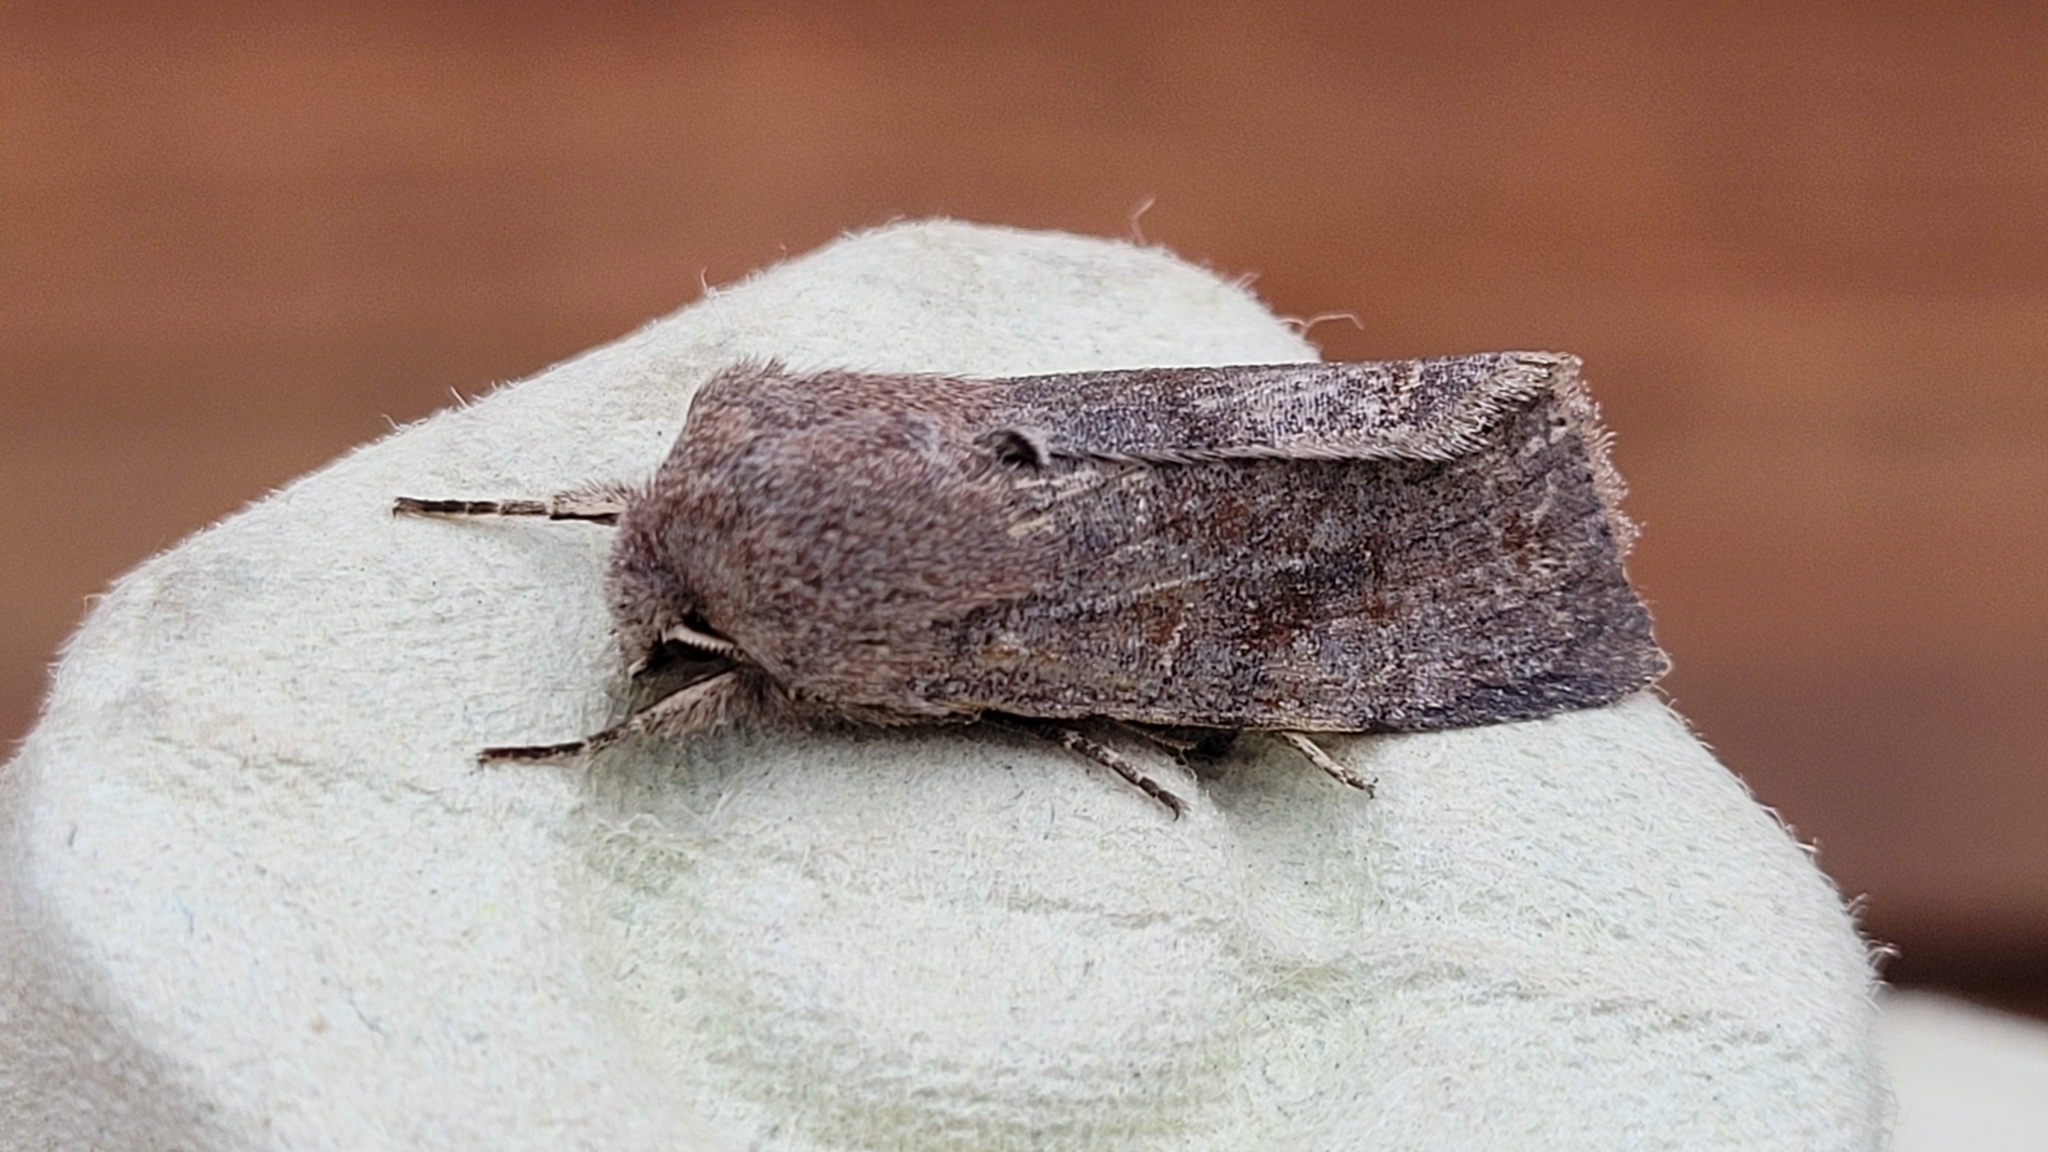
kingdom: Animalia
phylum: Arthropoda
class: Insecta
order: Lepidoptera
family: Noctuidae
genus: Orthosia
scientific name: Orthosia incerta
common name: Clouded drab
